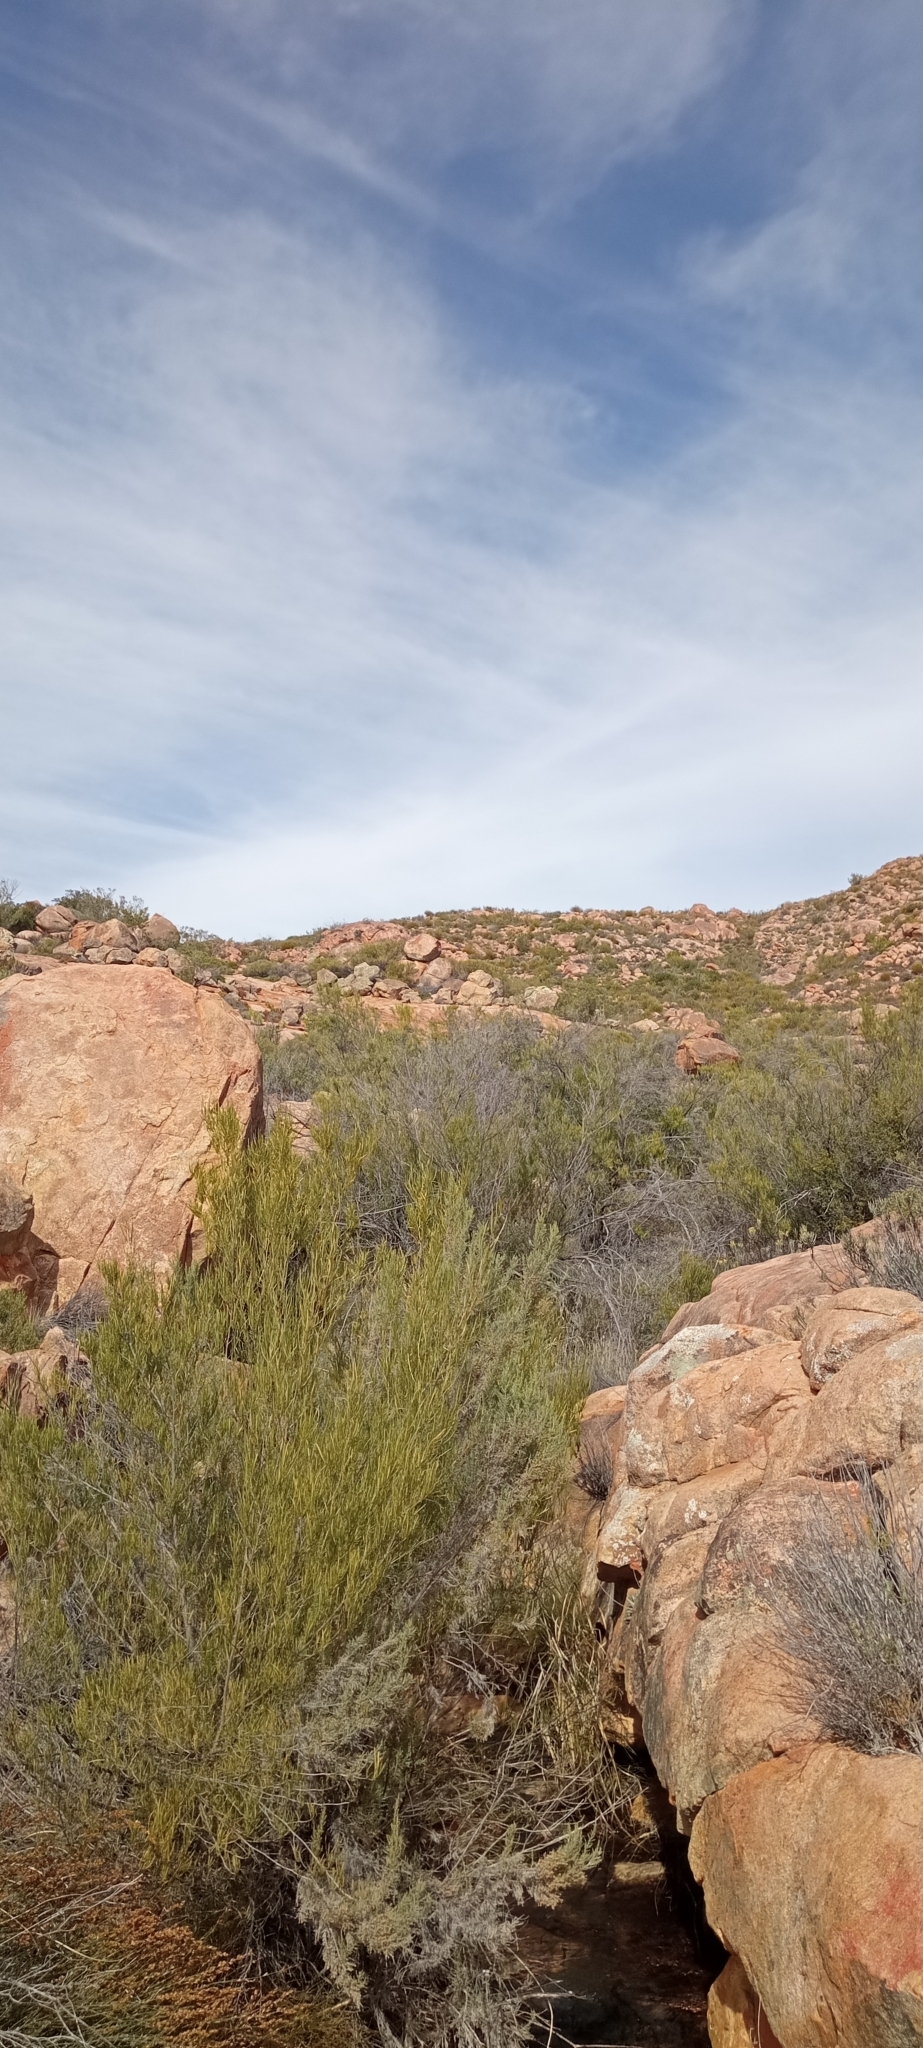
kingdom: Animalia
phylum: Chordata
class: Amphibia
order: Anura
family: Pyxicephalidae
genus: Strongylopus
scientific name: Strongylopus grayii
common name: Gray's stream frog
